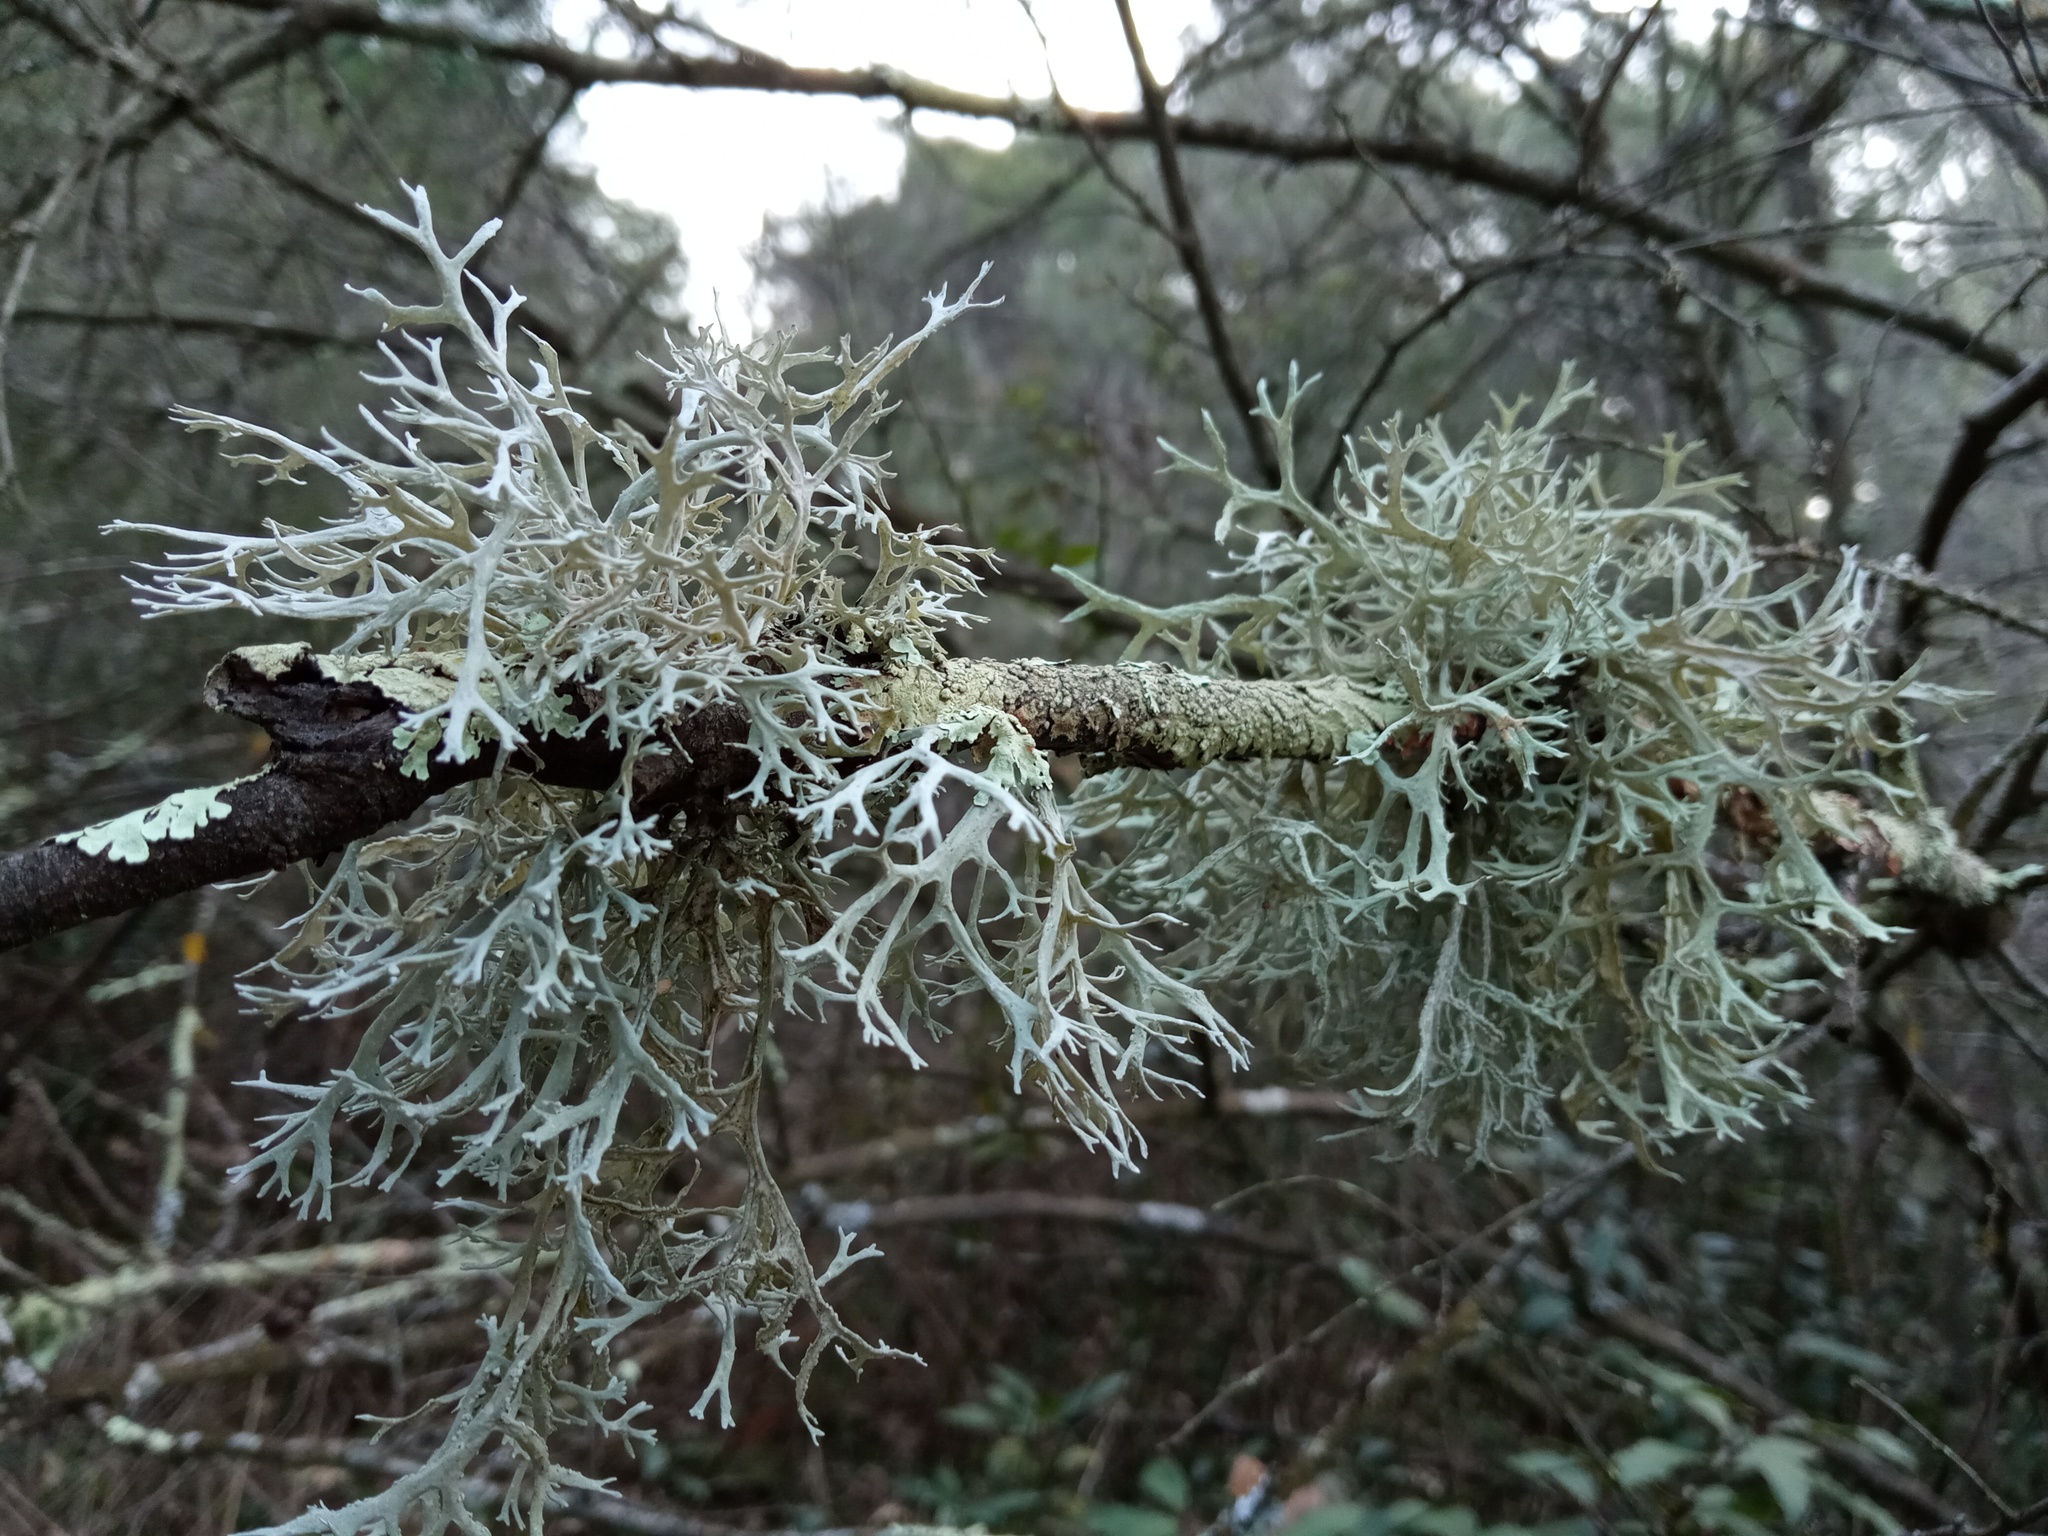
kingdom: Fungi
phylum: Ascomycota
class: Lecanoromycetes
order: Lecanorales
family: Parmeliaceae
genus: Evernia
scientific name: Evernia prunastri
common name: Oak moss
